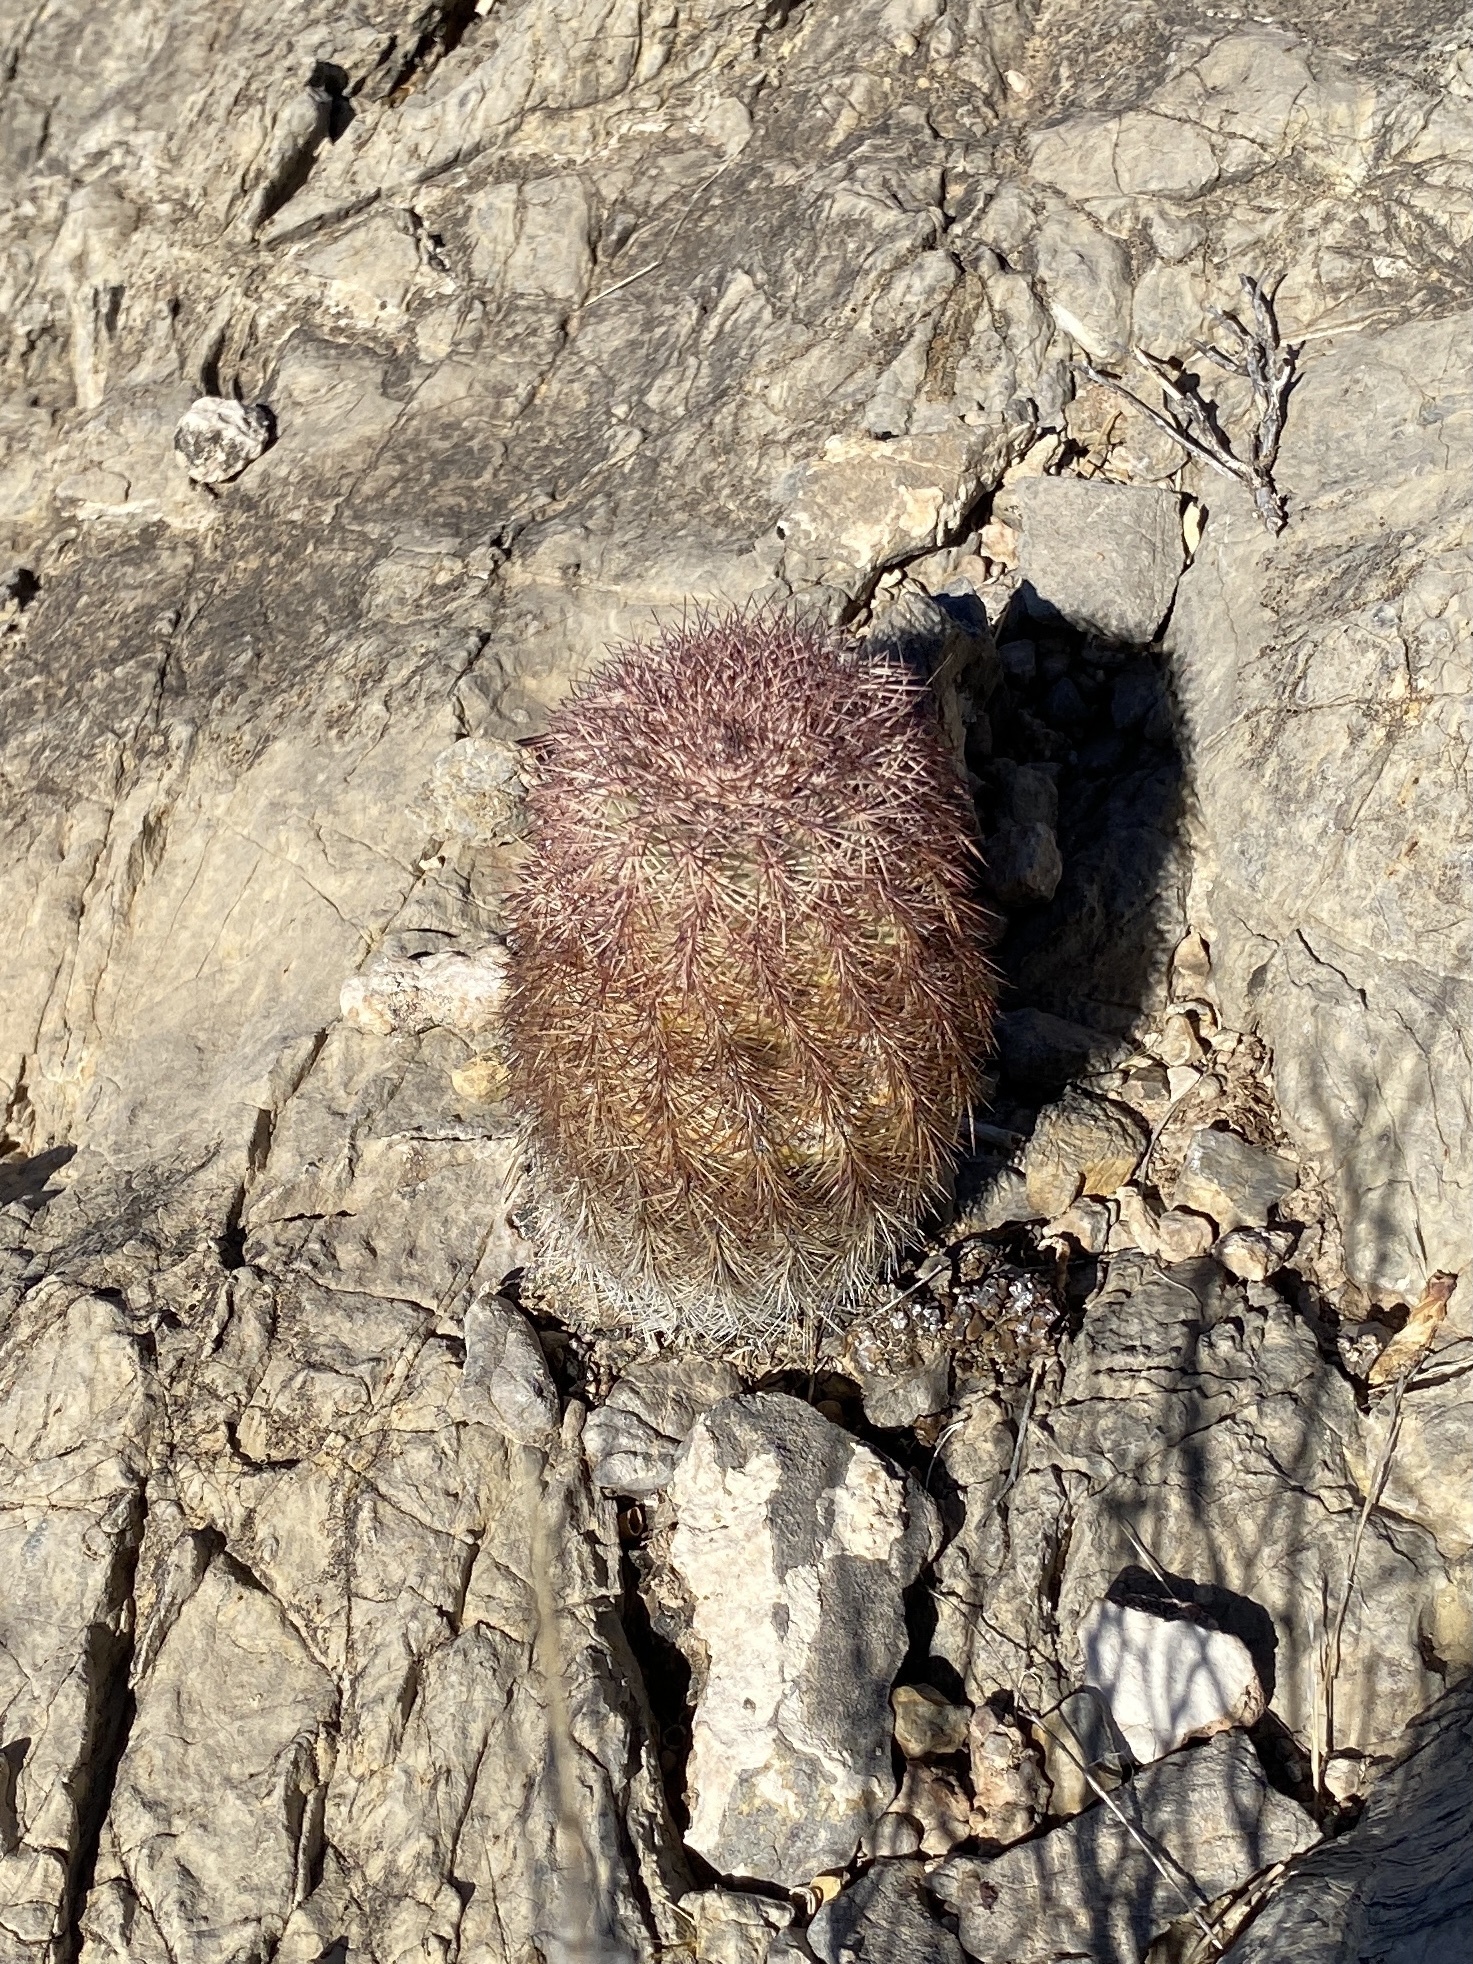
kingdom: Plantae
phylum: Tracheophyta
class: Magnoliopsida
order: Caryophyllales
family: Cactaceae
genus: Echinocereus
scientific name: Echinocereus dasyacanthus
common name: Spiny hedgehog cactus
